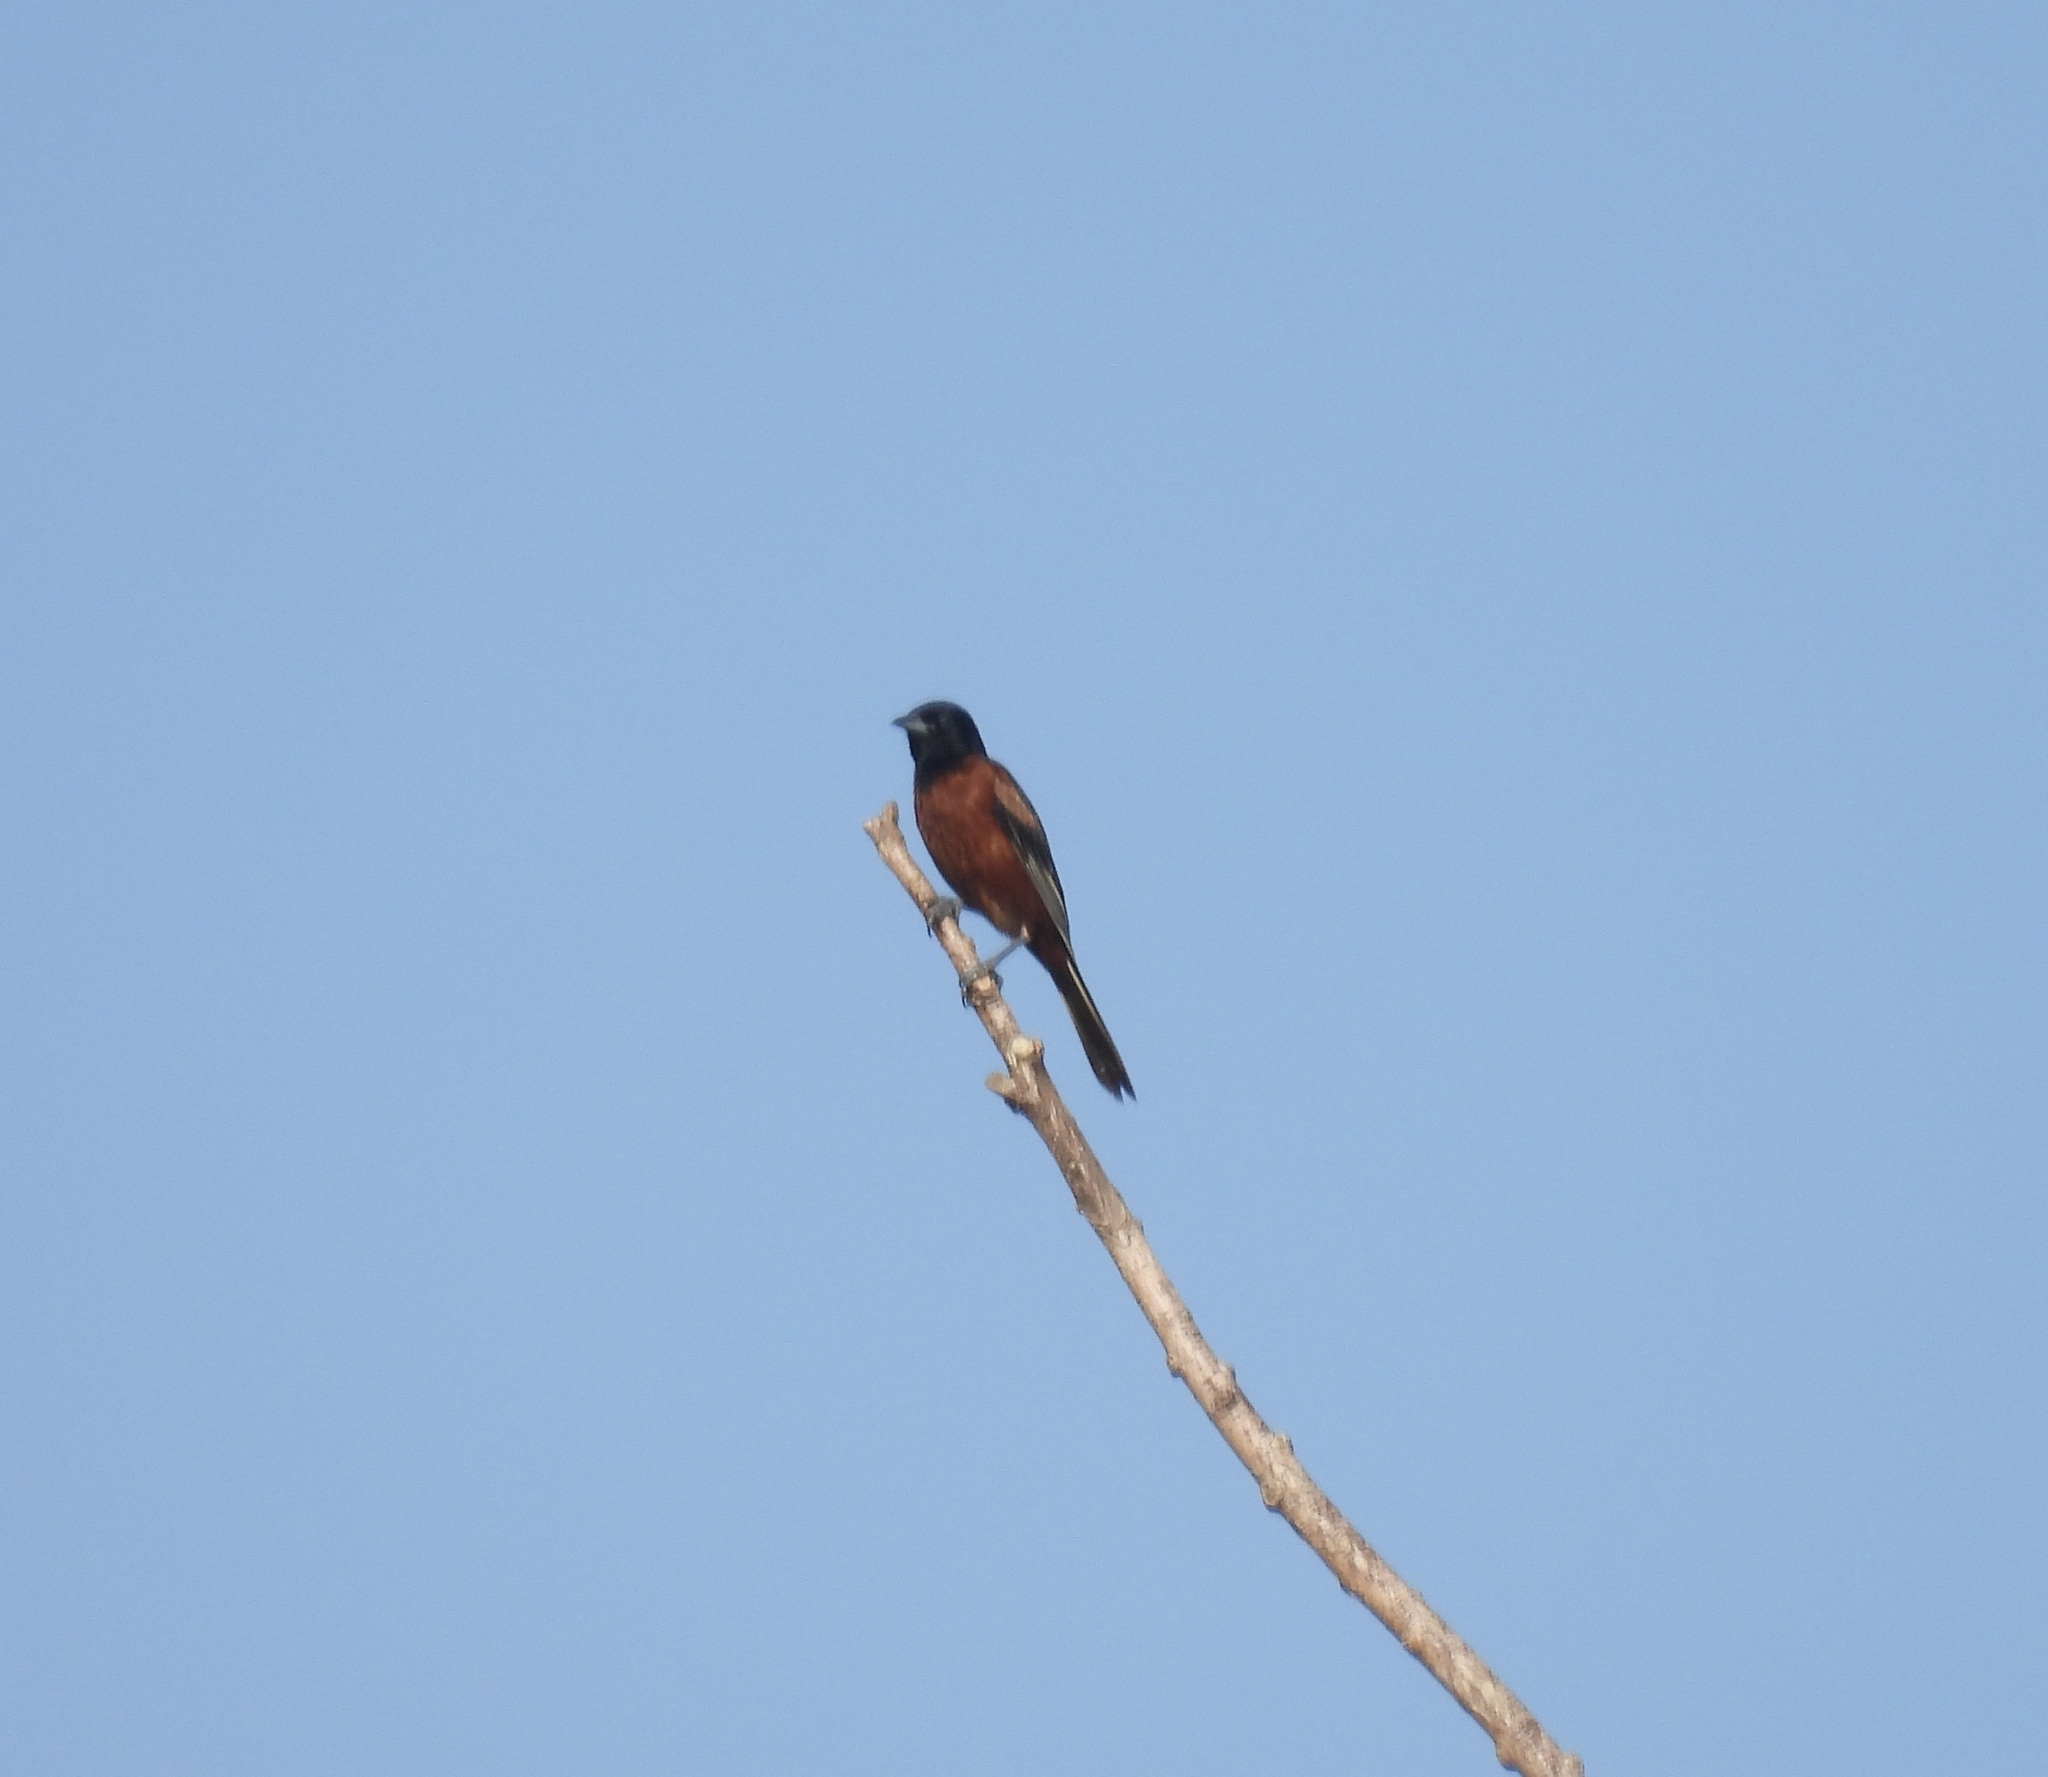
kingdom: Animalia
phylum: Chordata
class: Aves
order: Passeriformes
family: Icteridae
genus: Icterus
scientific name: Icterus spurius
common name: Orchard oriole
